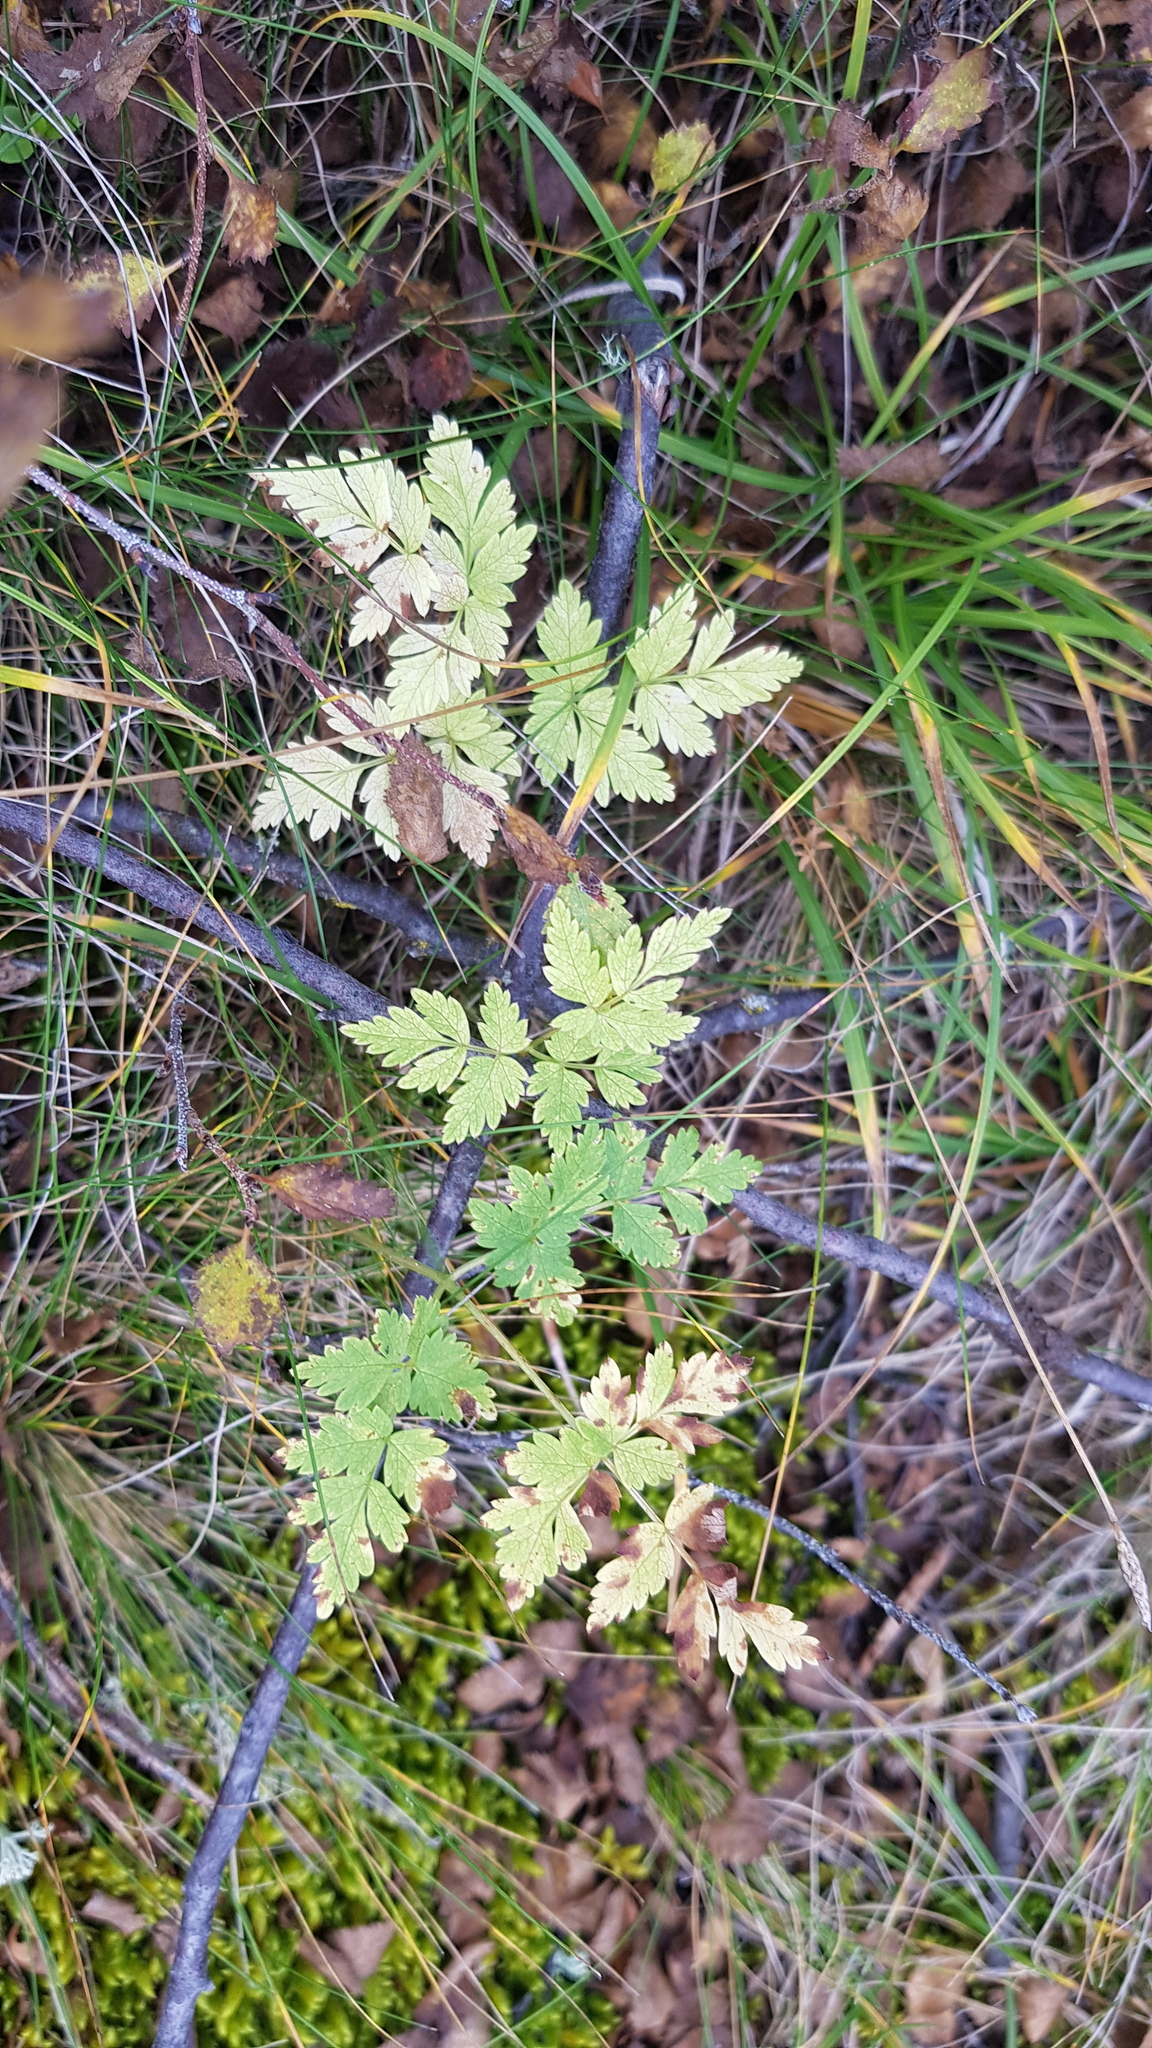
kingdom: Plantae
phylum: Tracheophyta
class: Magnoliopsida
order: Apiales
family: Apiaceae
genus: Aegopodium
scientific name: Aegopodium alpestre
